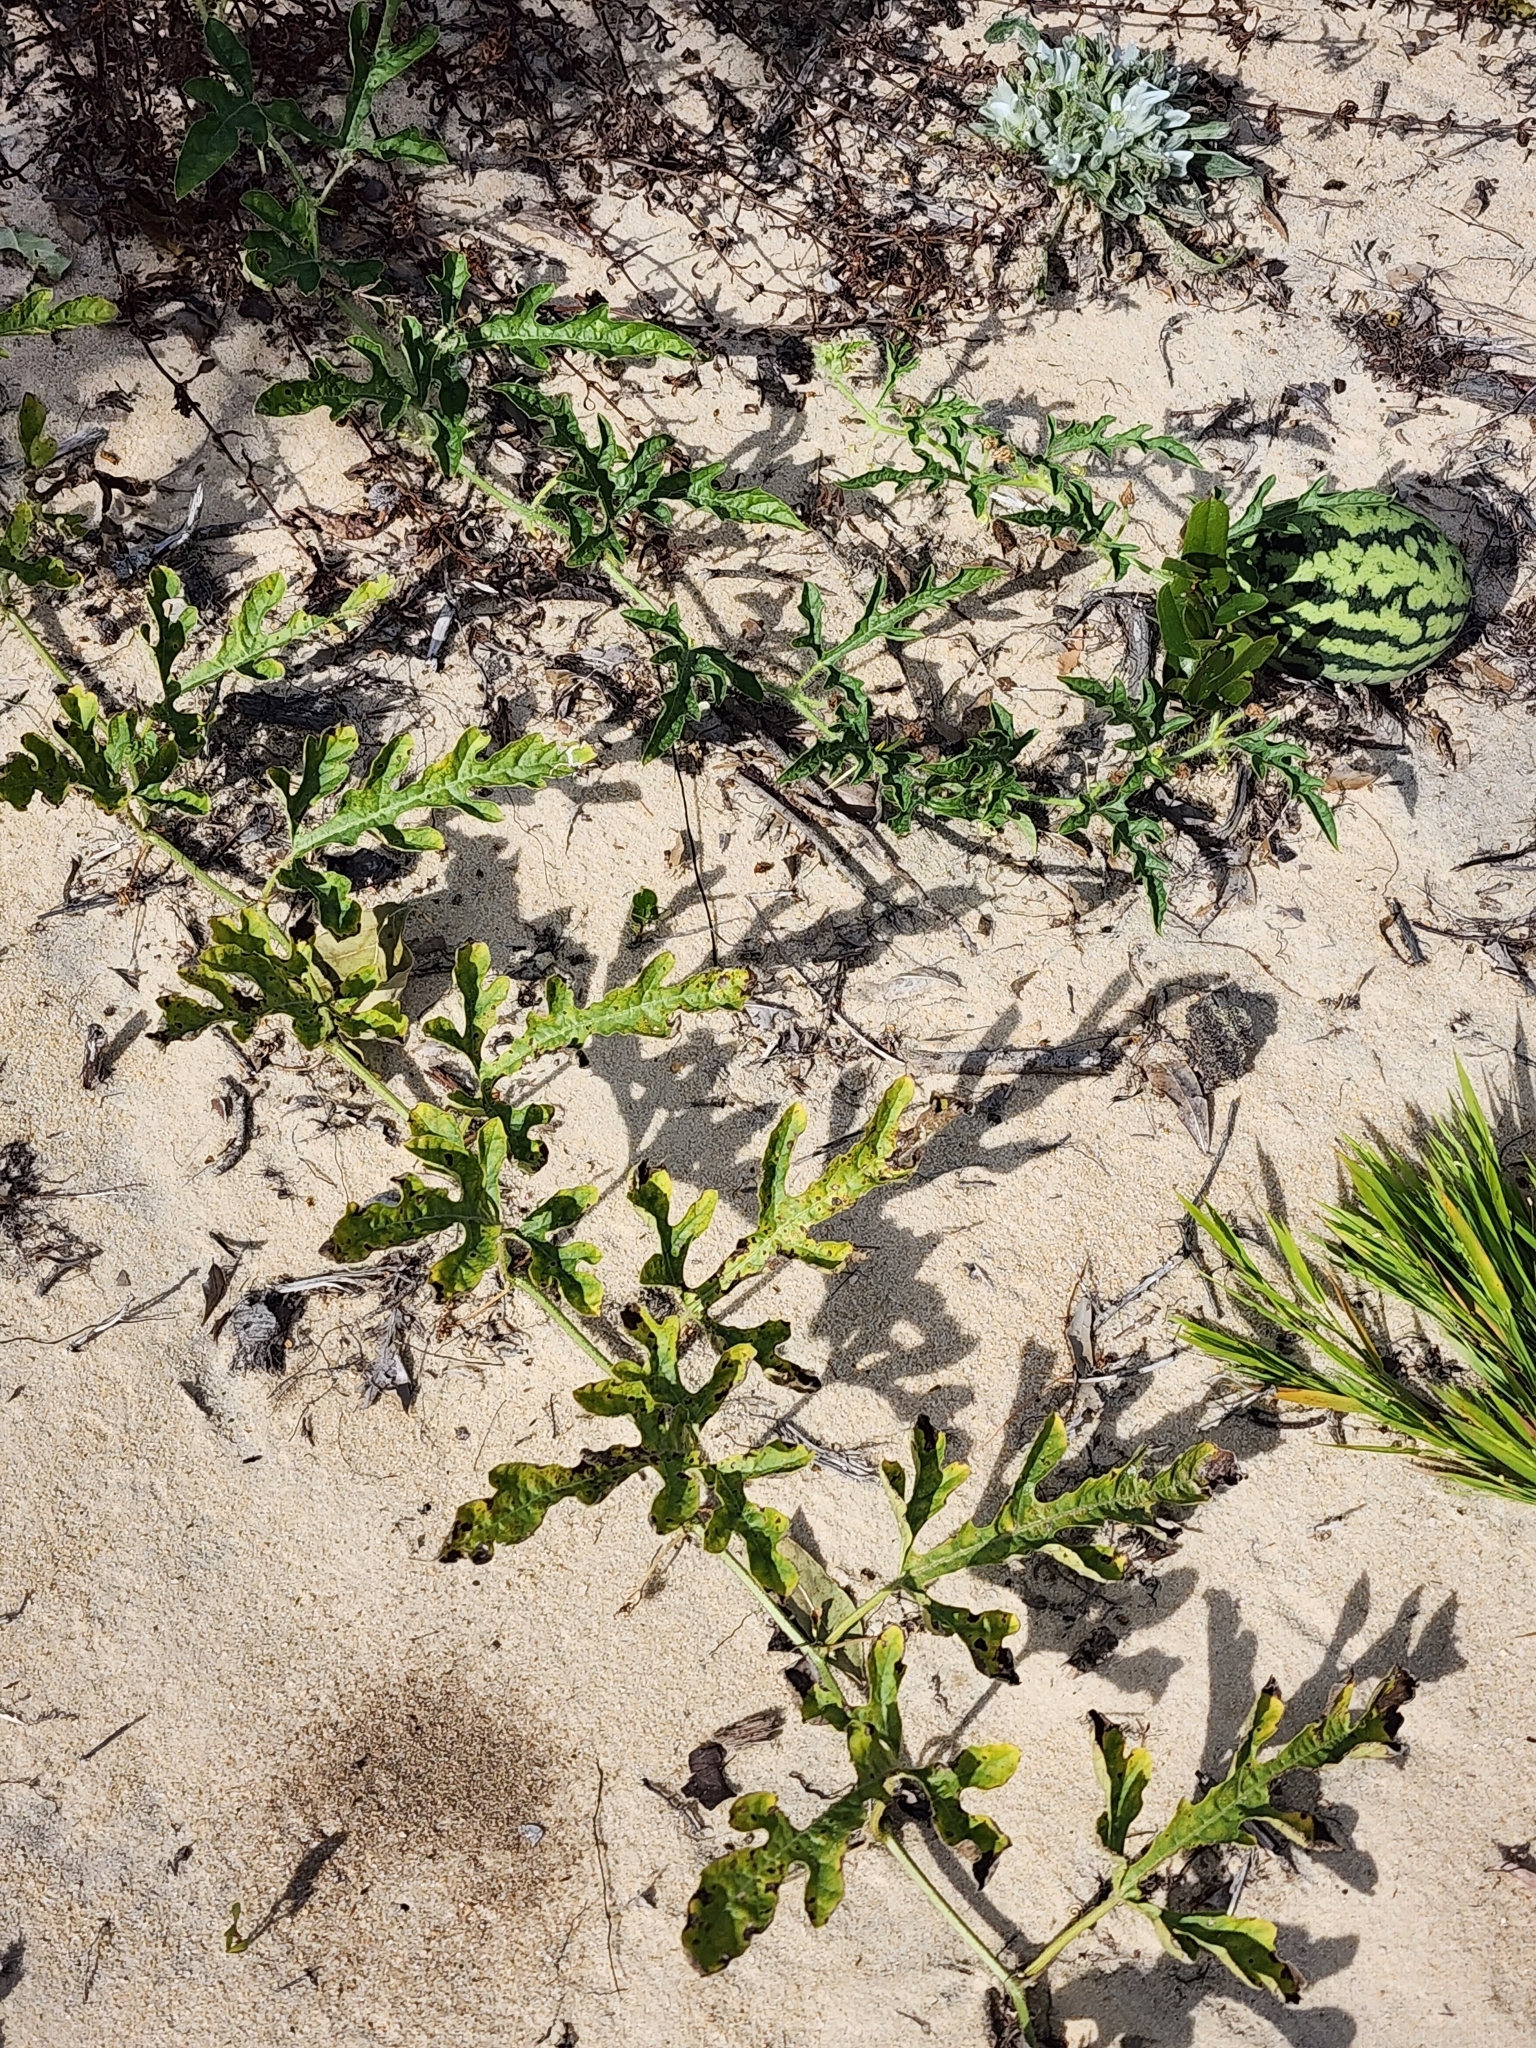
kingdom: Plantae
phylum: Tracheophyta
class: Magnoliopsida
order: Cucurbitales
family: Cucurbitaceae
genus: Citrullus
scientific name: Citrullus lanatus
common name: Watermelon
